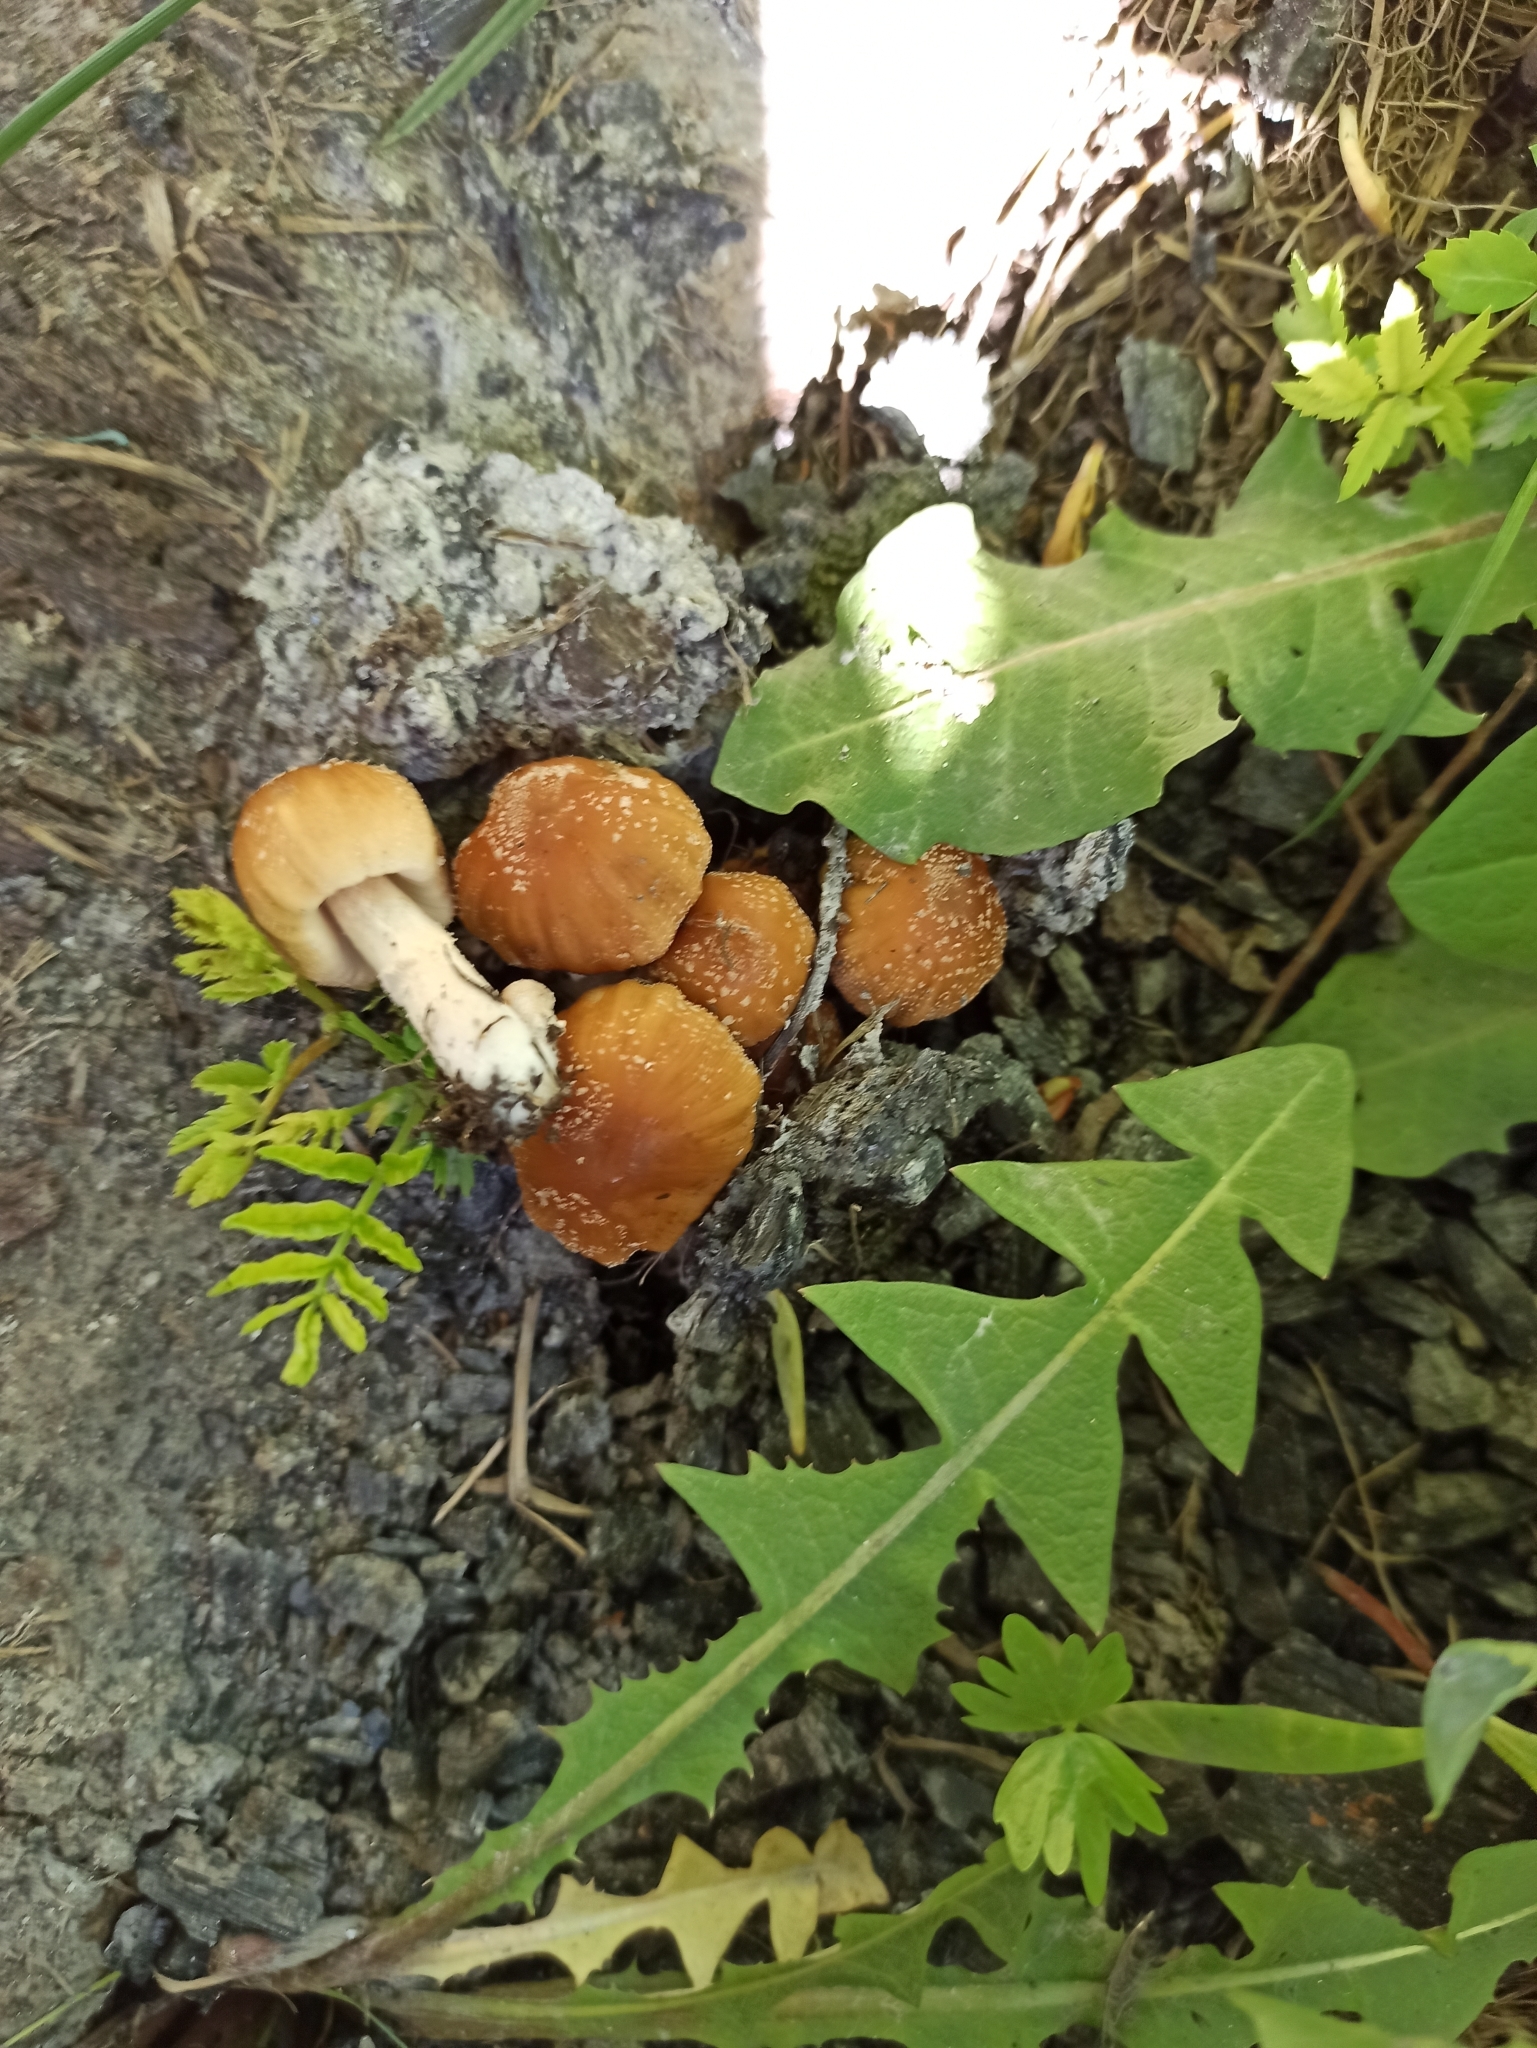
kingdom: Fungi
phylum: Basidiomycota
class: Agaricomycetes
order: Agaricales
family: Psathyrellaceae
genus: Coprinellus
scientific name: Coprinellus micaceus
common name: Glistening ink-cap
